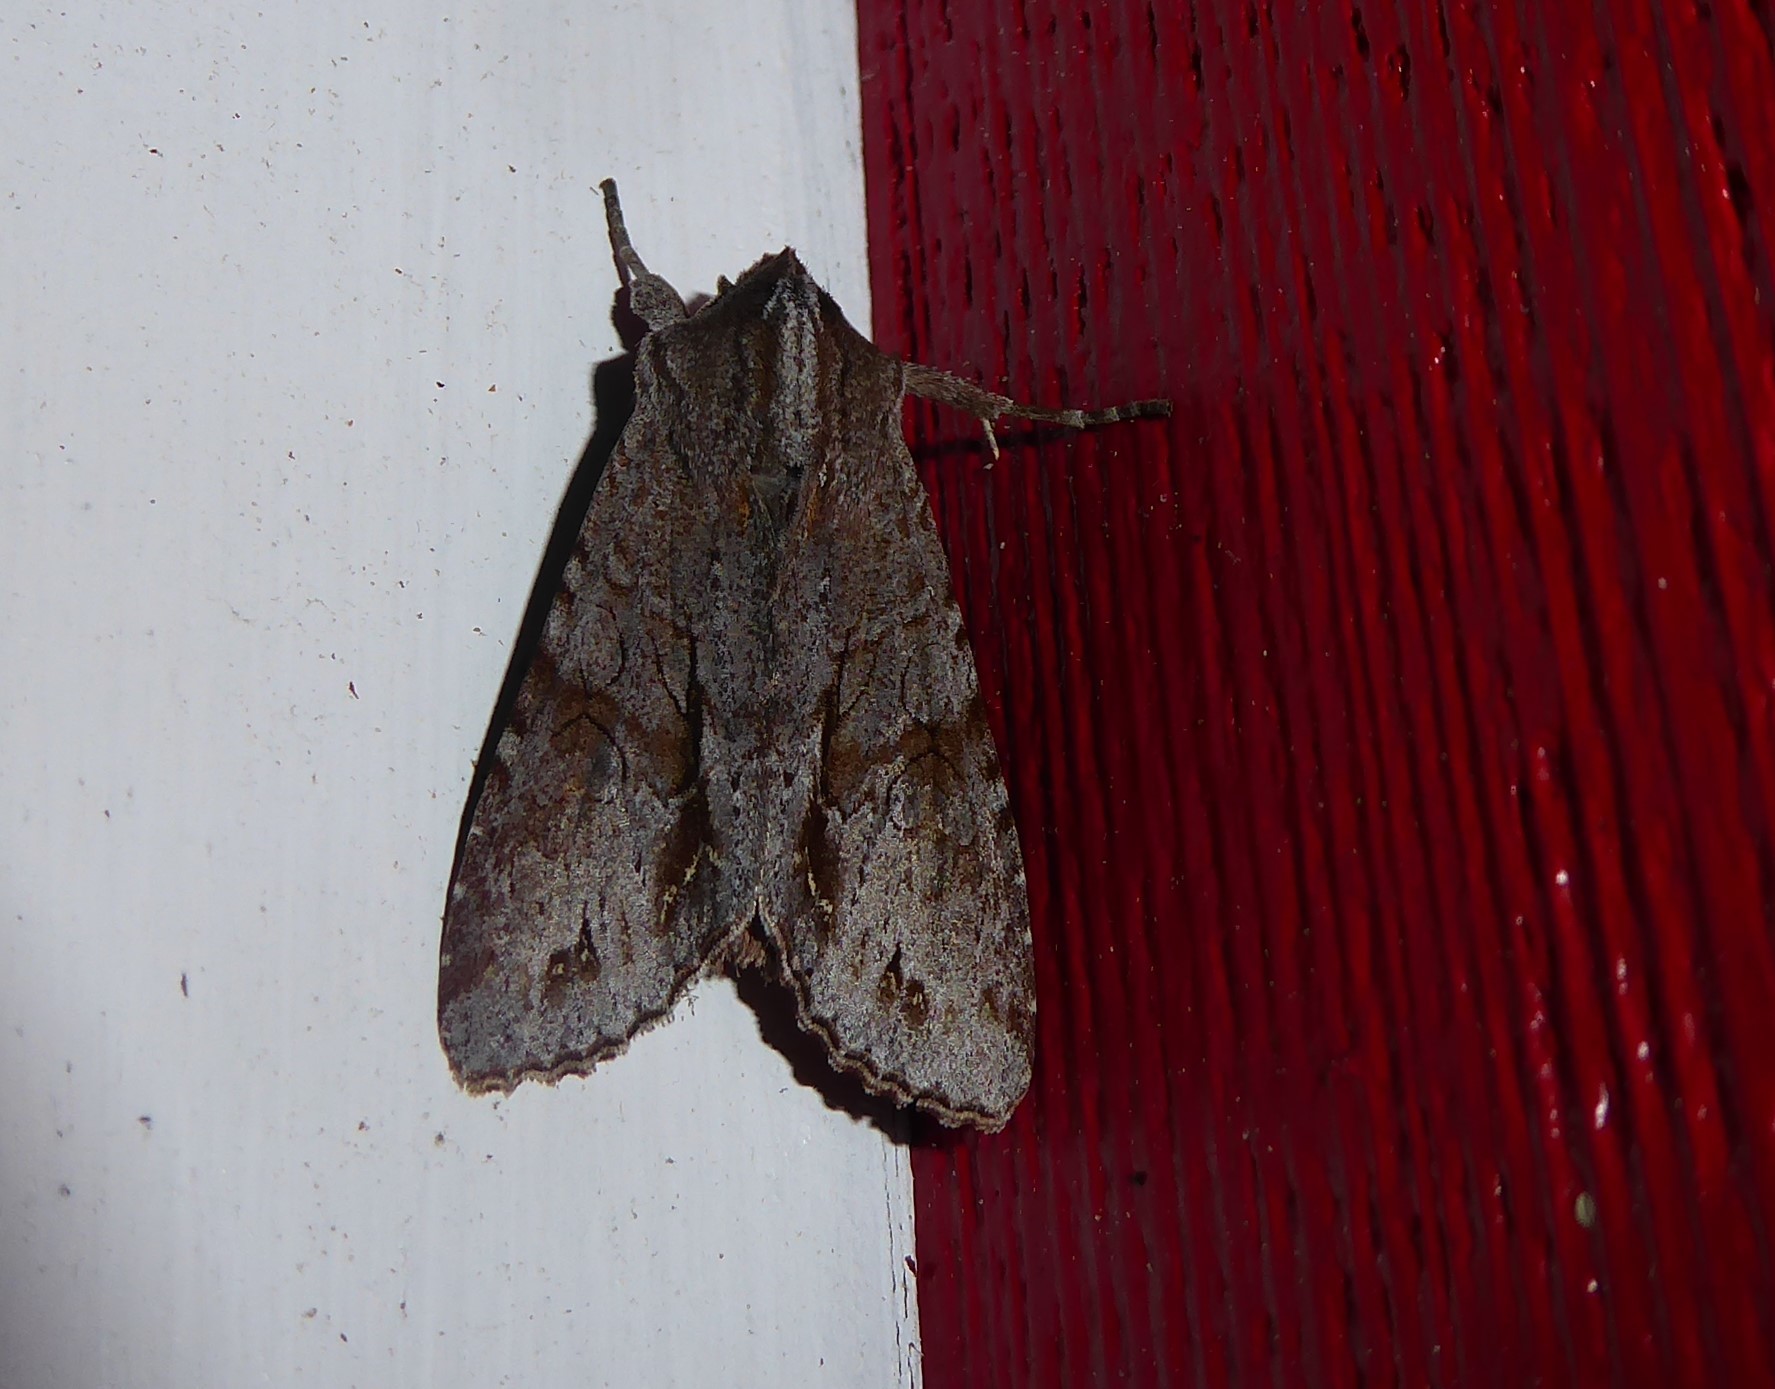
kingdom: Animalia
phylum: Arthropoda
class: Insecta
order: Lepidoptera
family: Noctuidae
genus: Ichneutica
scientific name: Ichneutica
